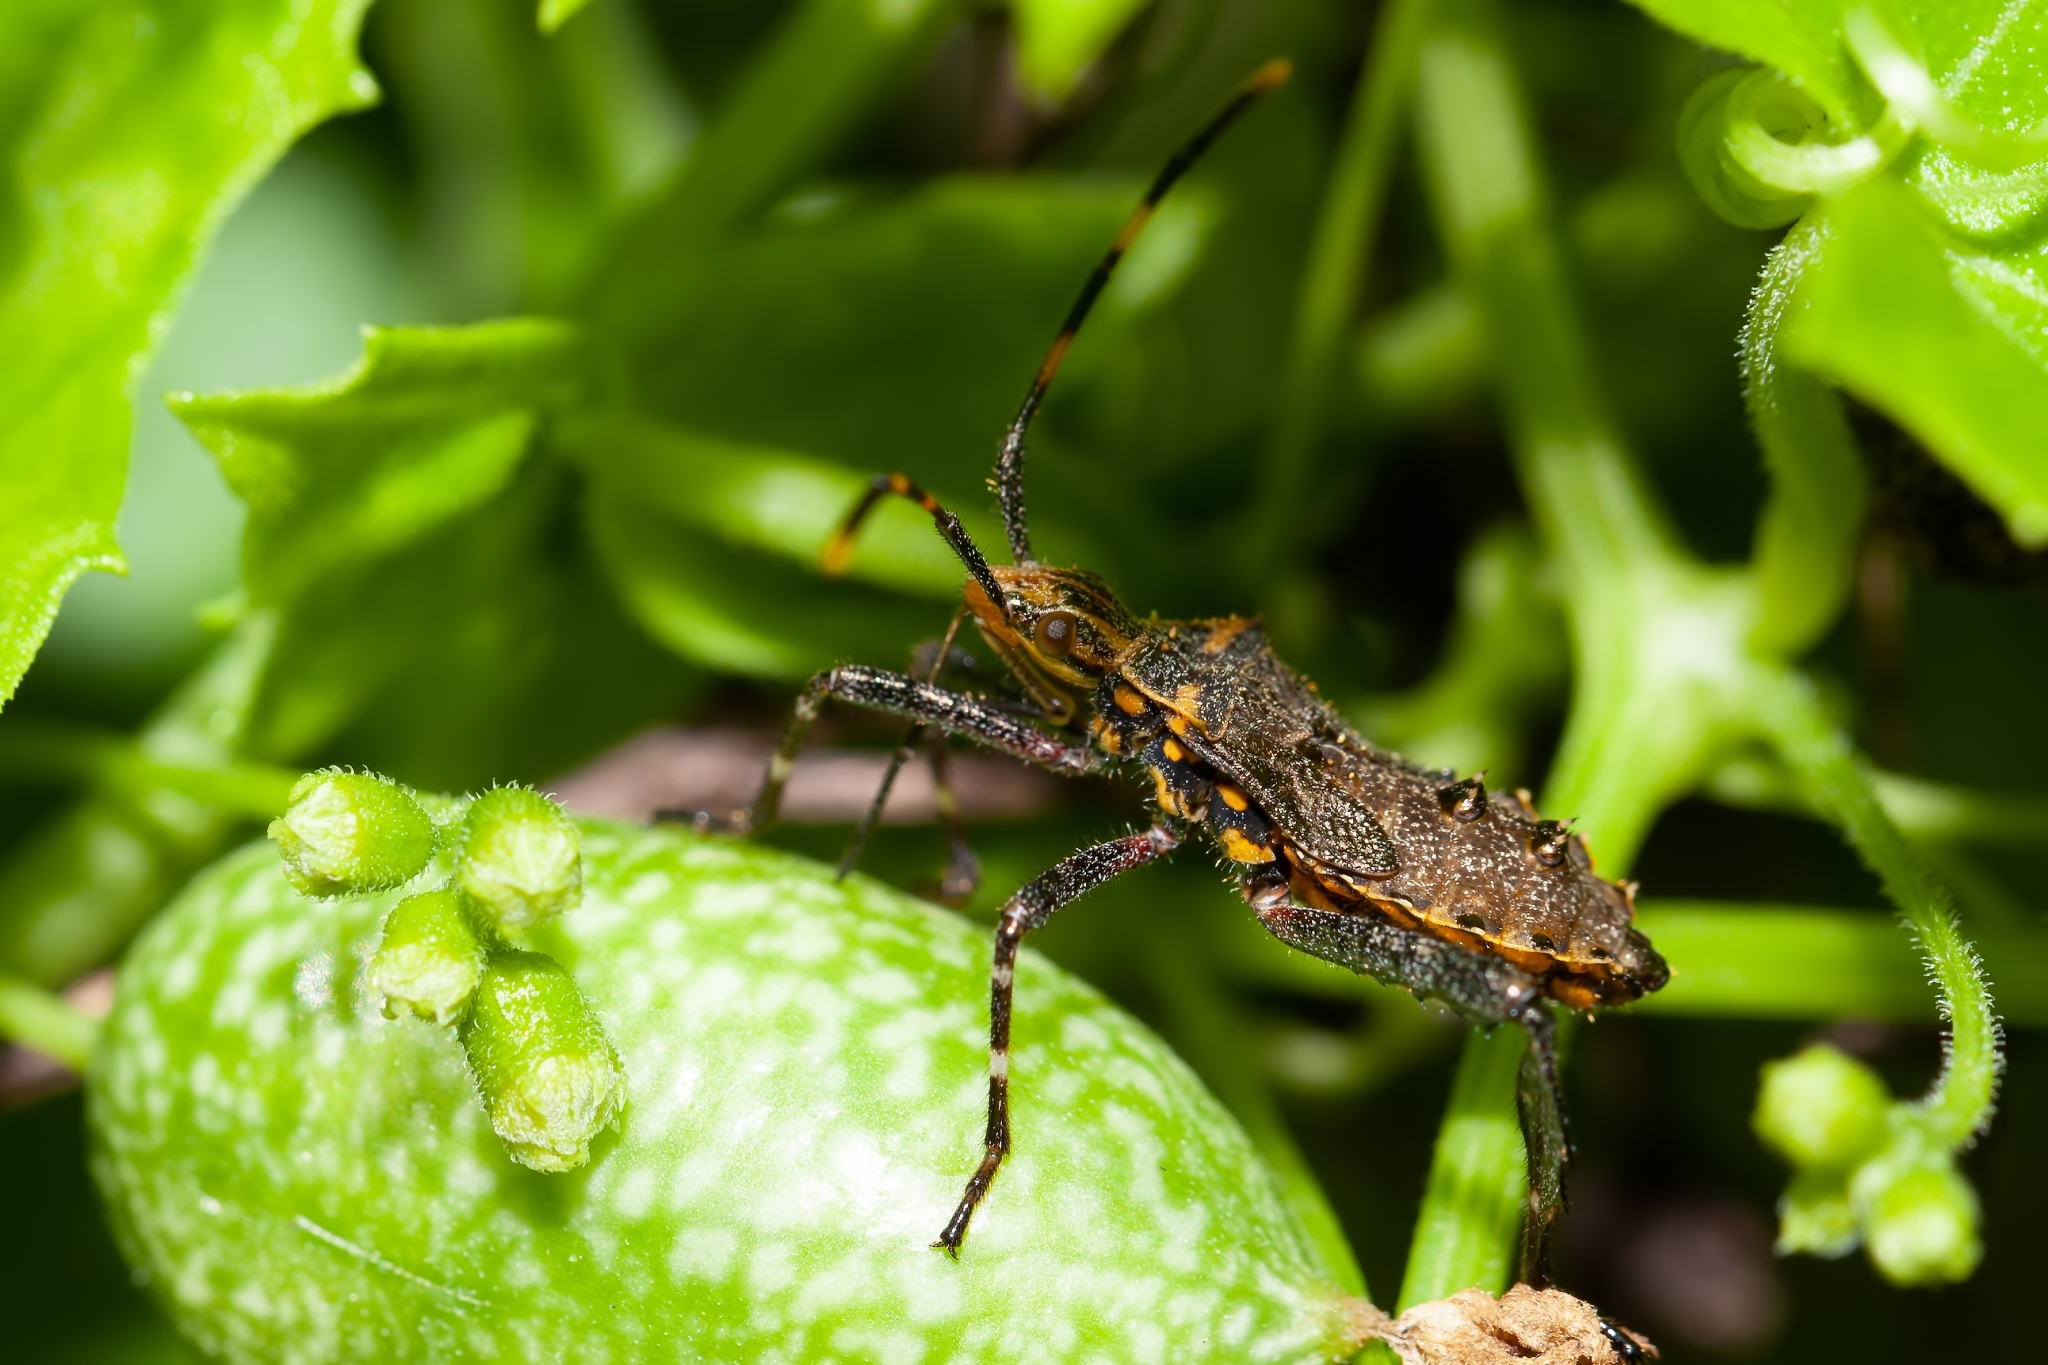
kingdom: Animalia
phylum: Arthropoda
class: Insecta
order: Hemiptera
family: Coreidae
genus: Leptoglossus
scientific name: Leptoglossus gonagra
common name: Citron bug
